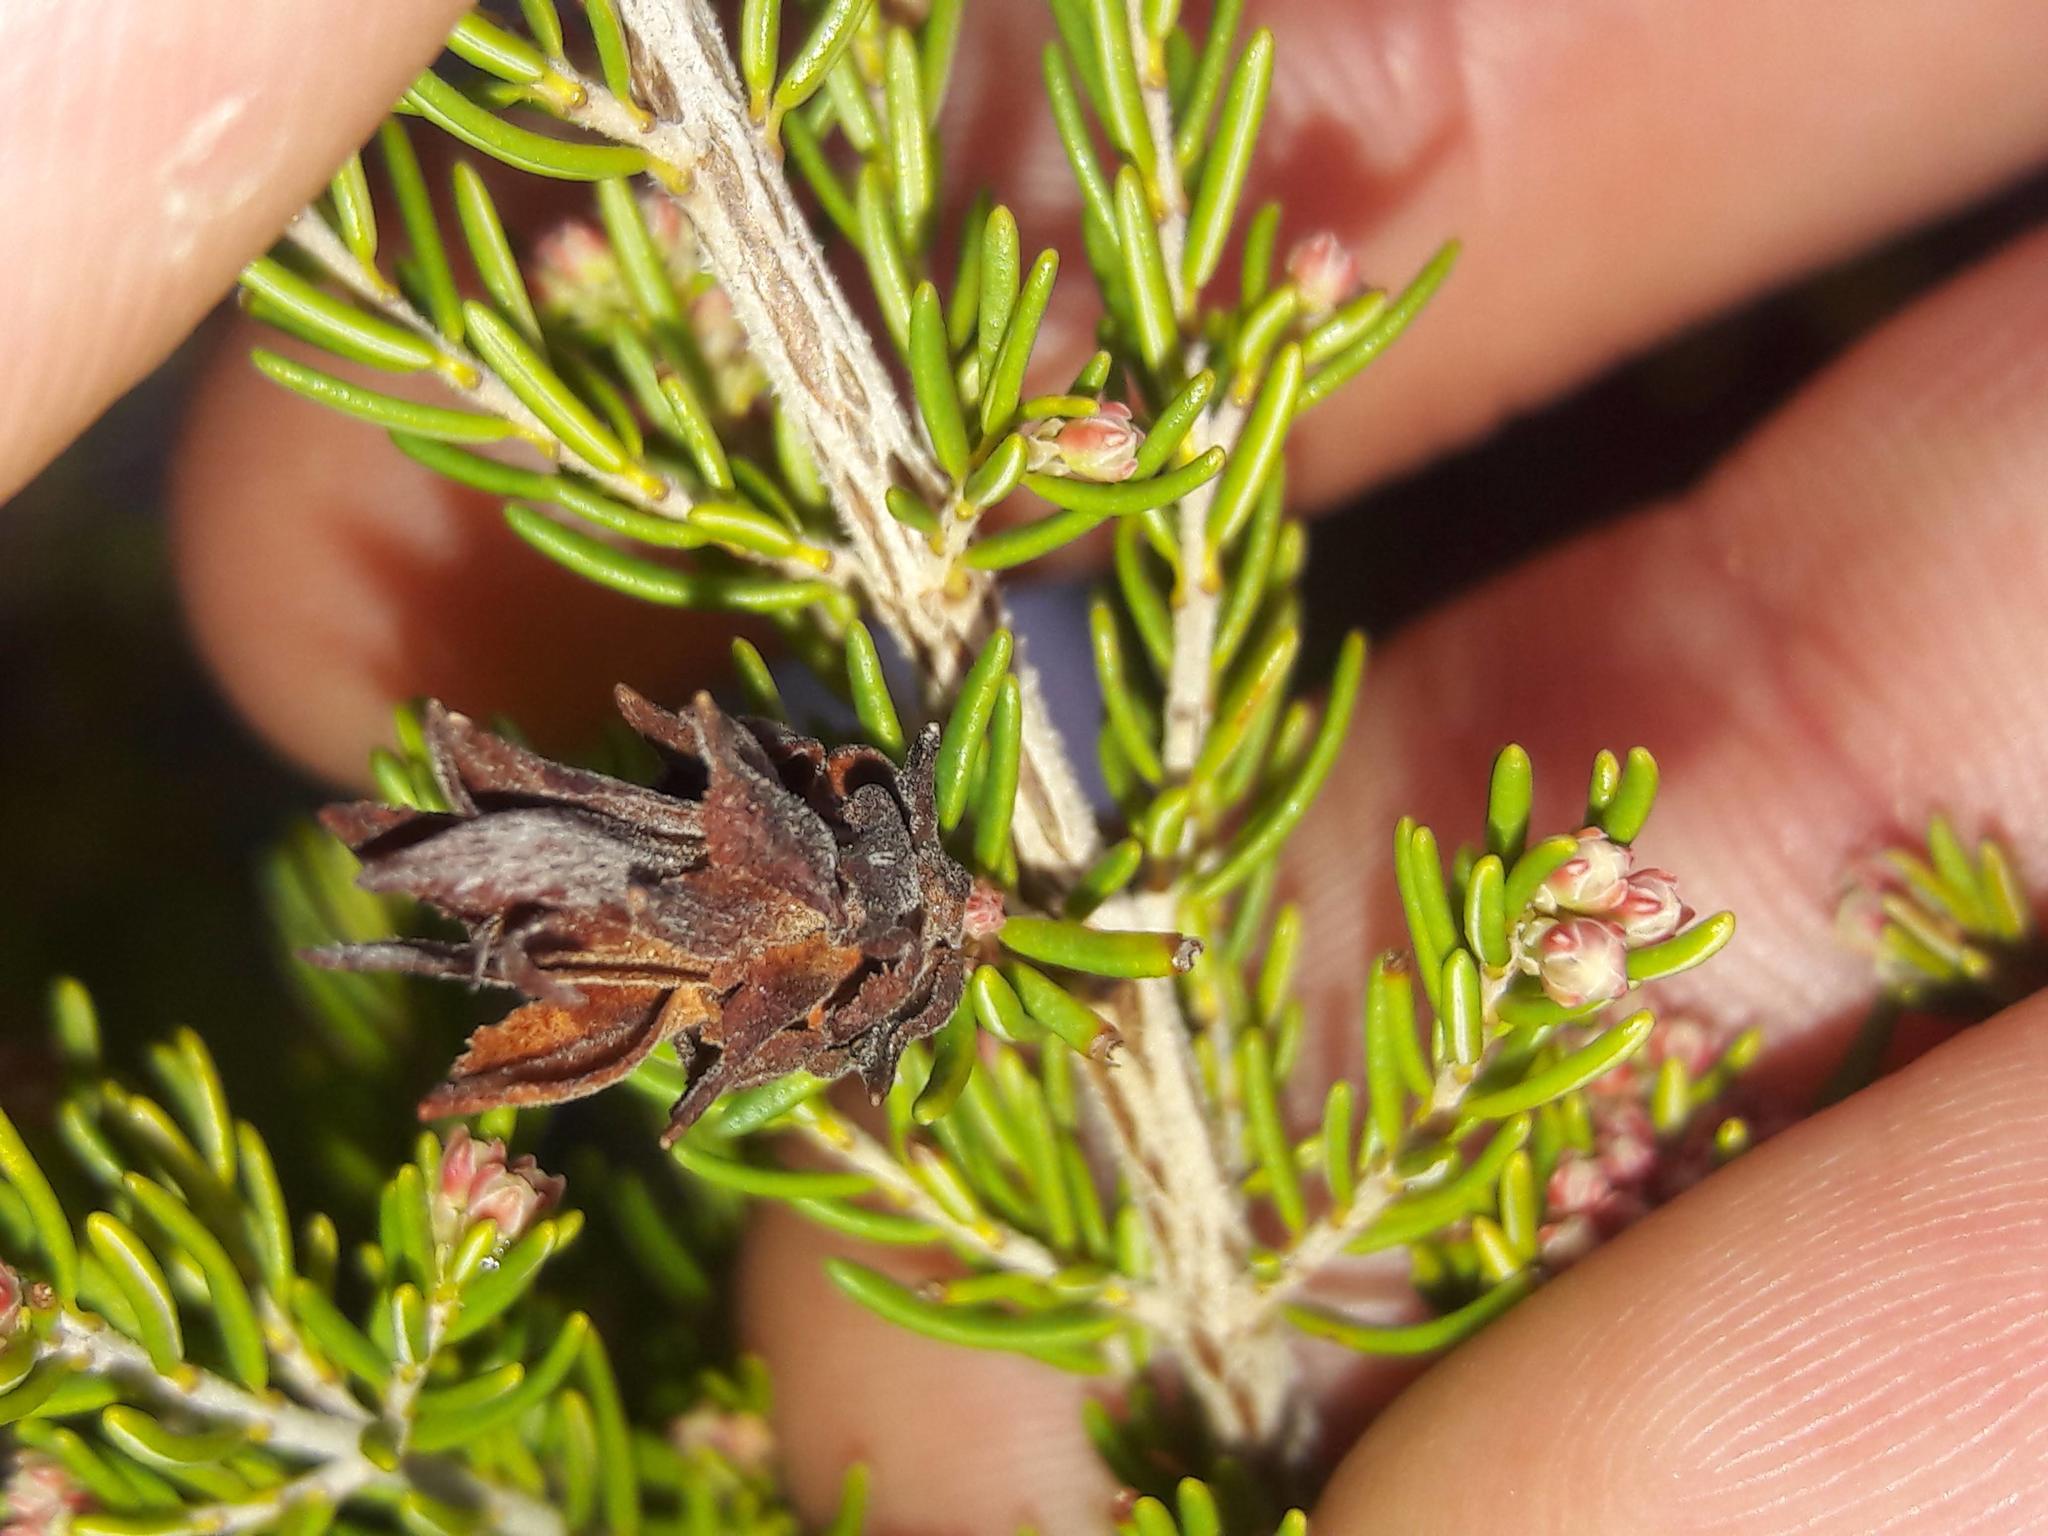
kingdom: Plantae
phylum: Tracheophyta
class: Magnoliopsida
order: Ericales
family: Ericaceae
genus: Erica
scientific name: Erica arborea
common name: Tree heath
